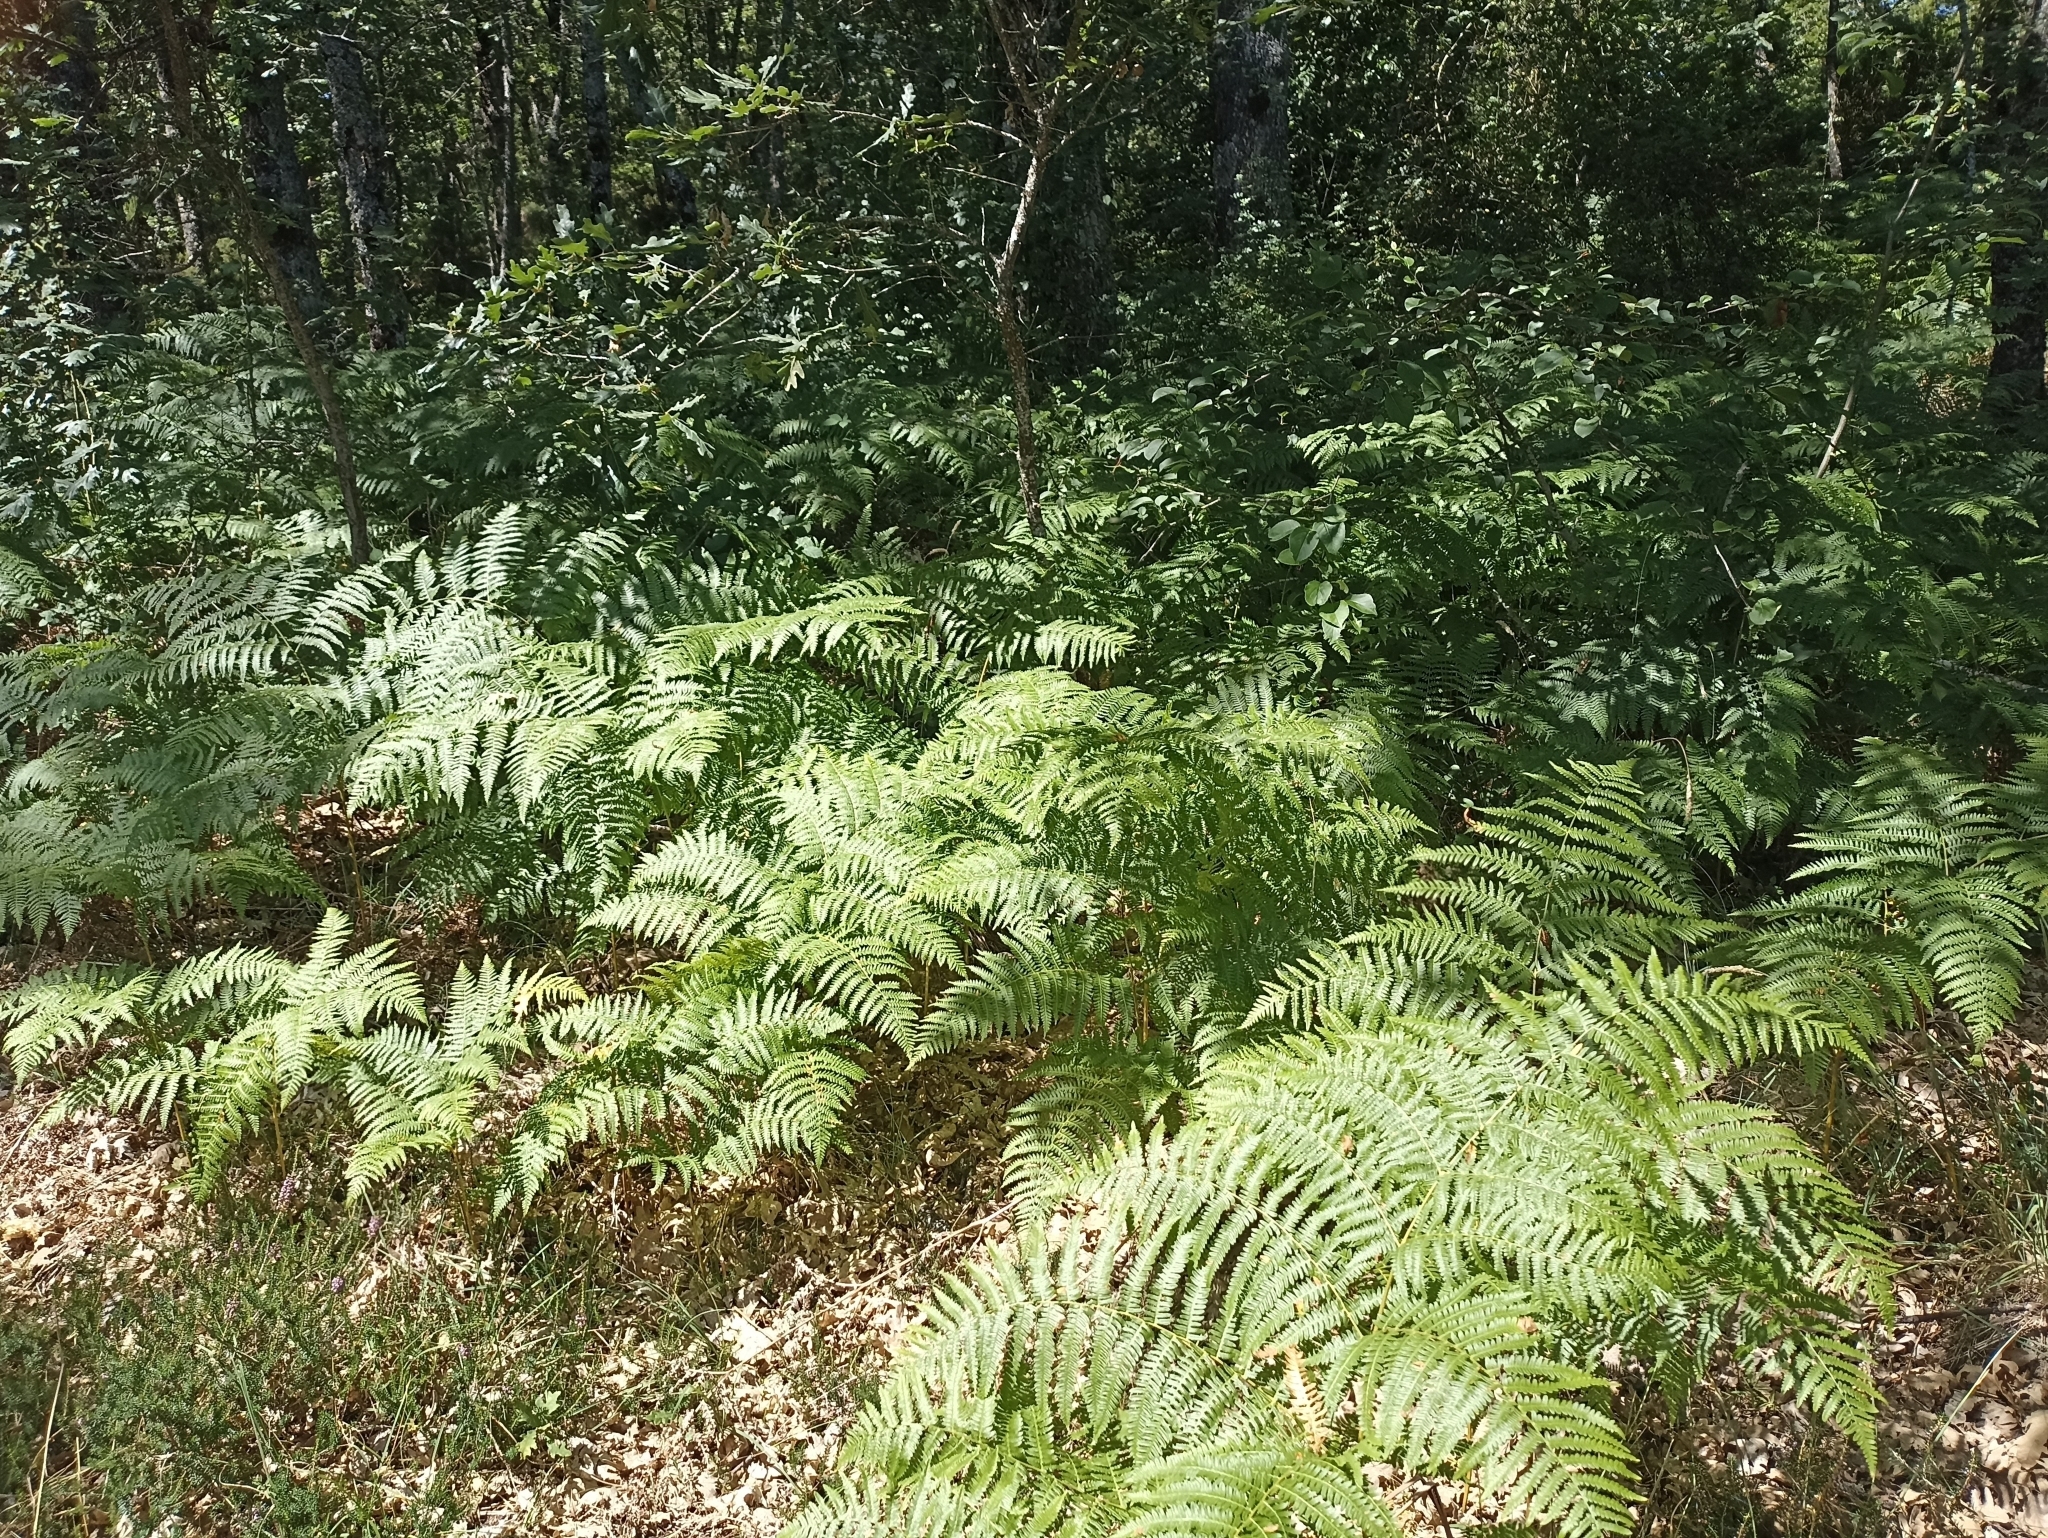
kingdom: Plantae
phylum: Tracheophyta
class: Polypodiopsida
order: Polypodiales
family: Dennstaedtiaceae
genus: Pteridium
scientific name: Pteridium aquilinum
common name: Bracken
